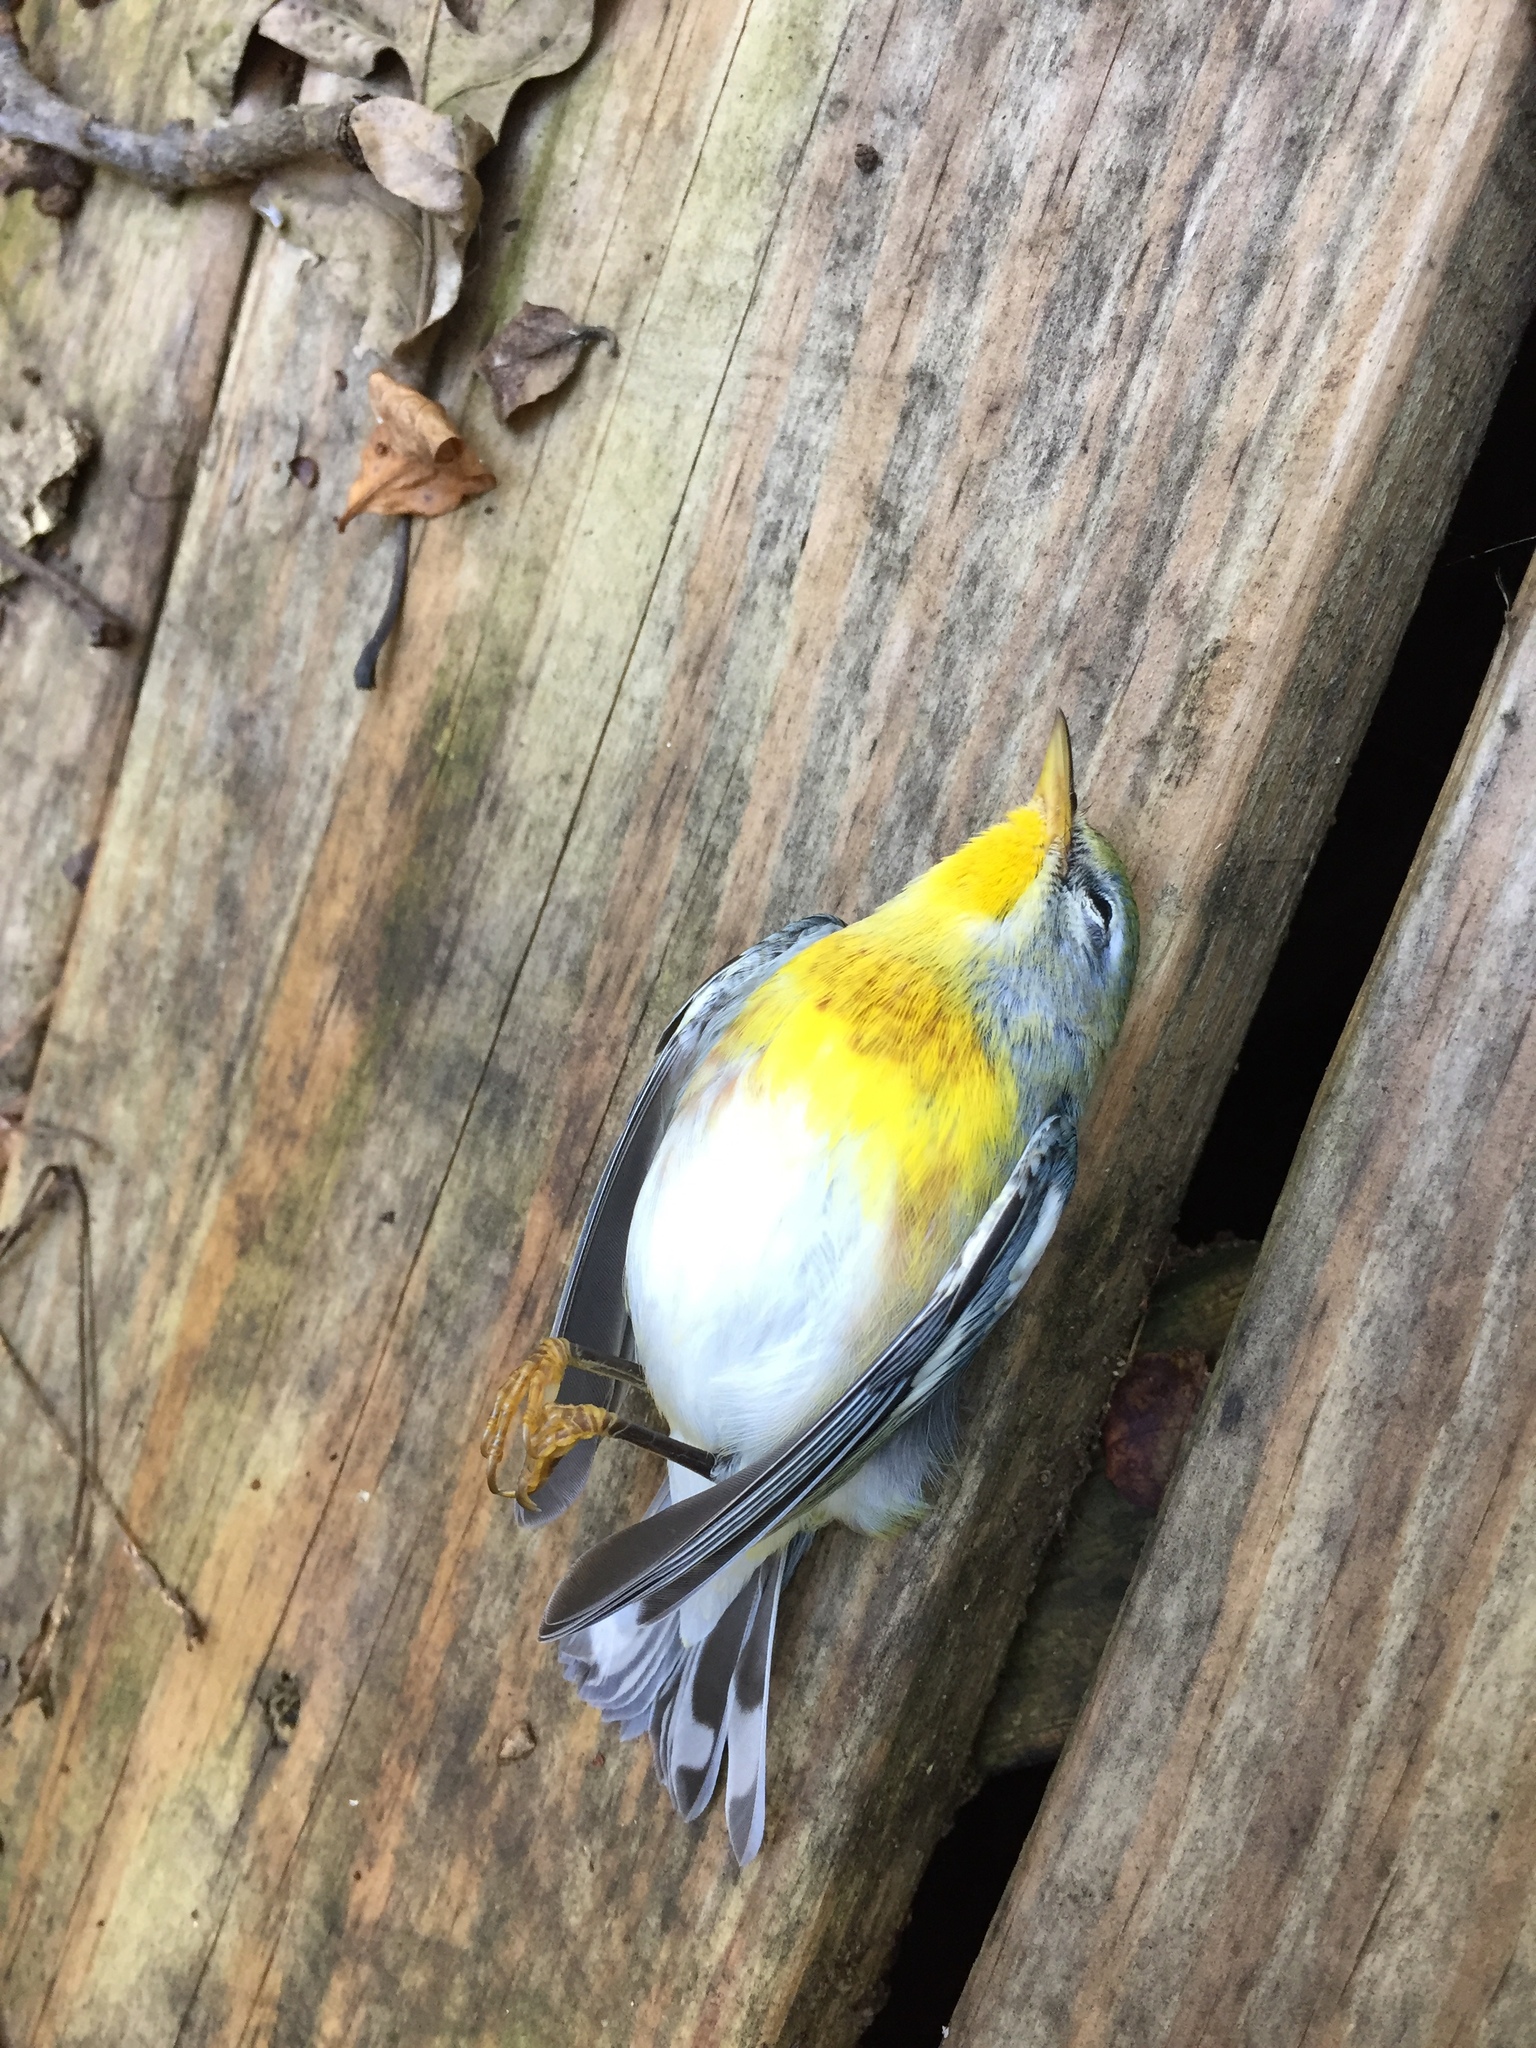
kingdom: Animalia
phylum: Chordata
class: Aves
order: Passeriformes
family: Parulidae
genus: Setophaga
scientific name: Setophaga americana
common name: Northern parula
